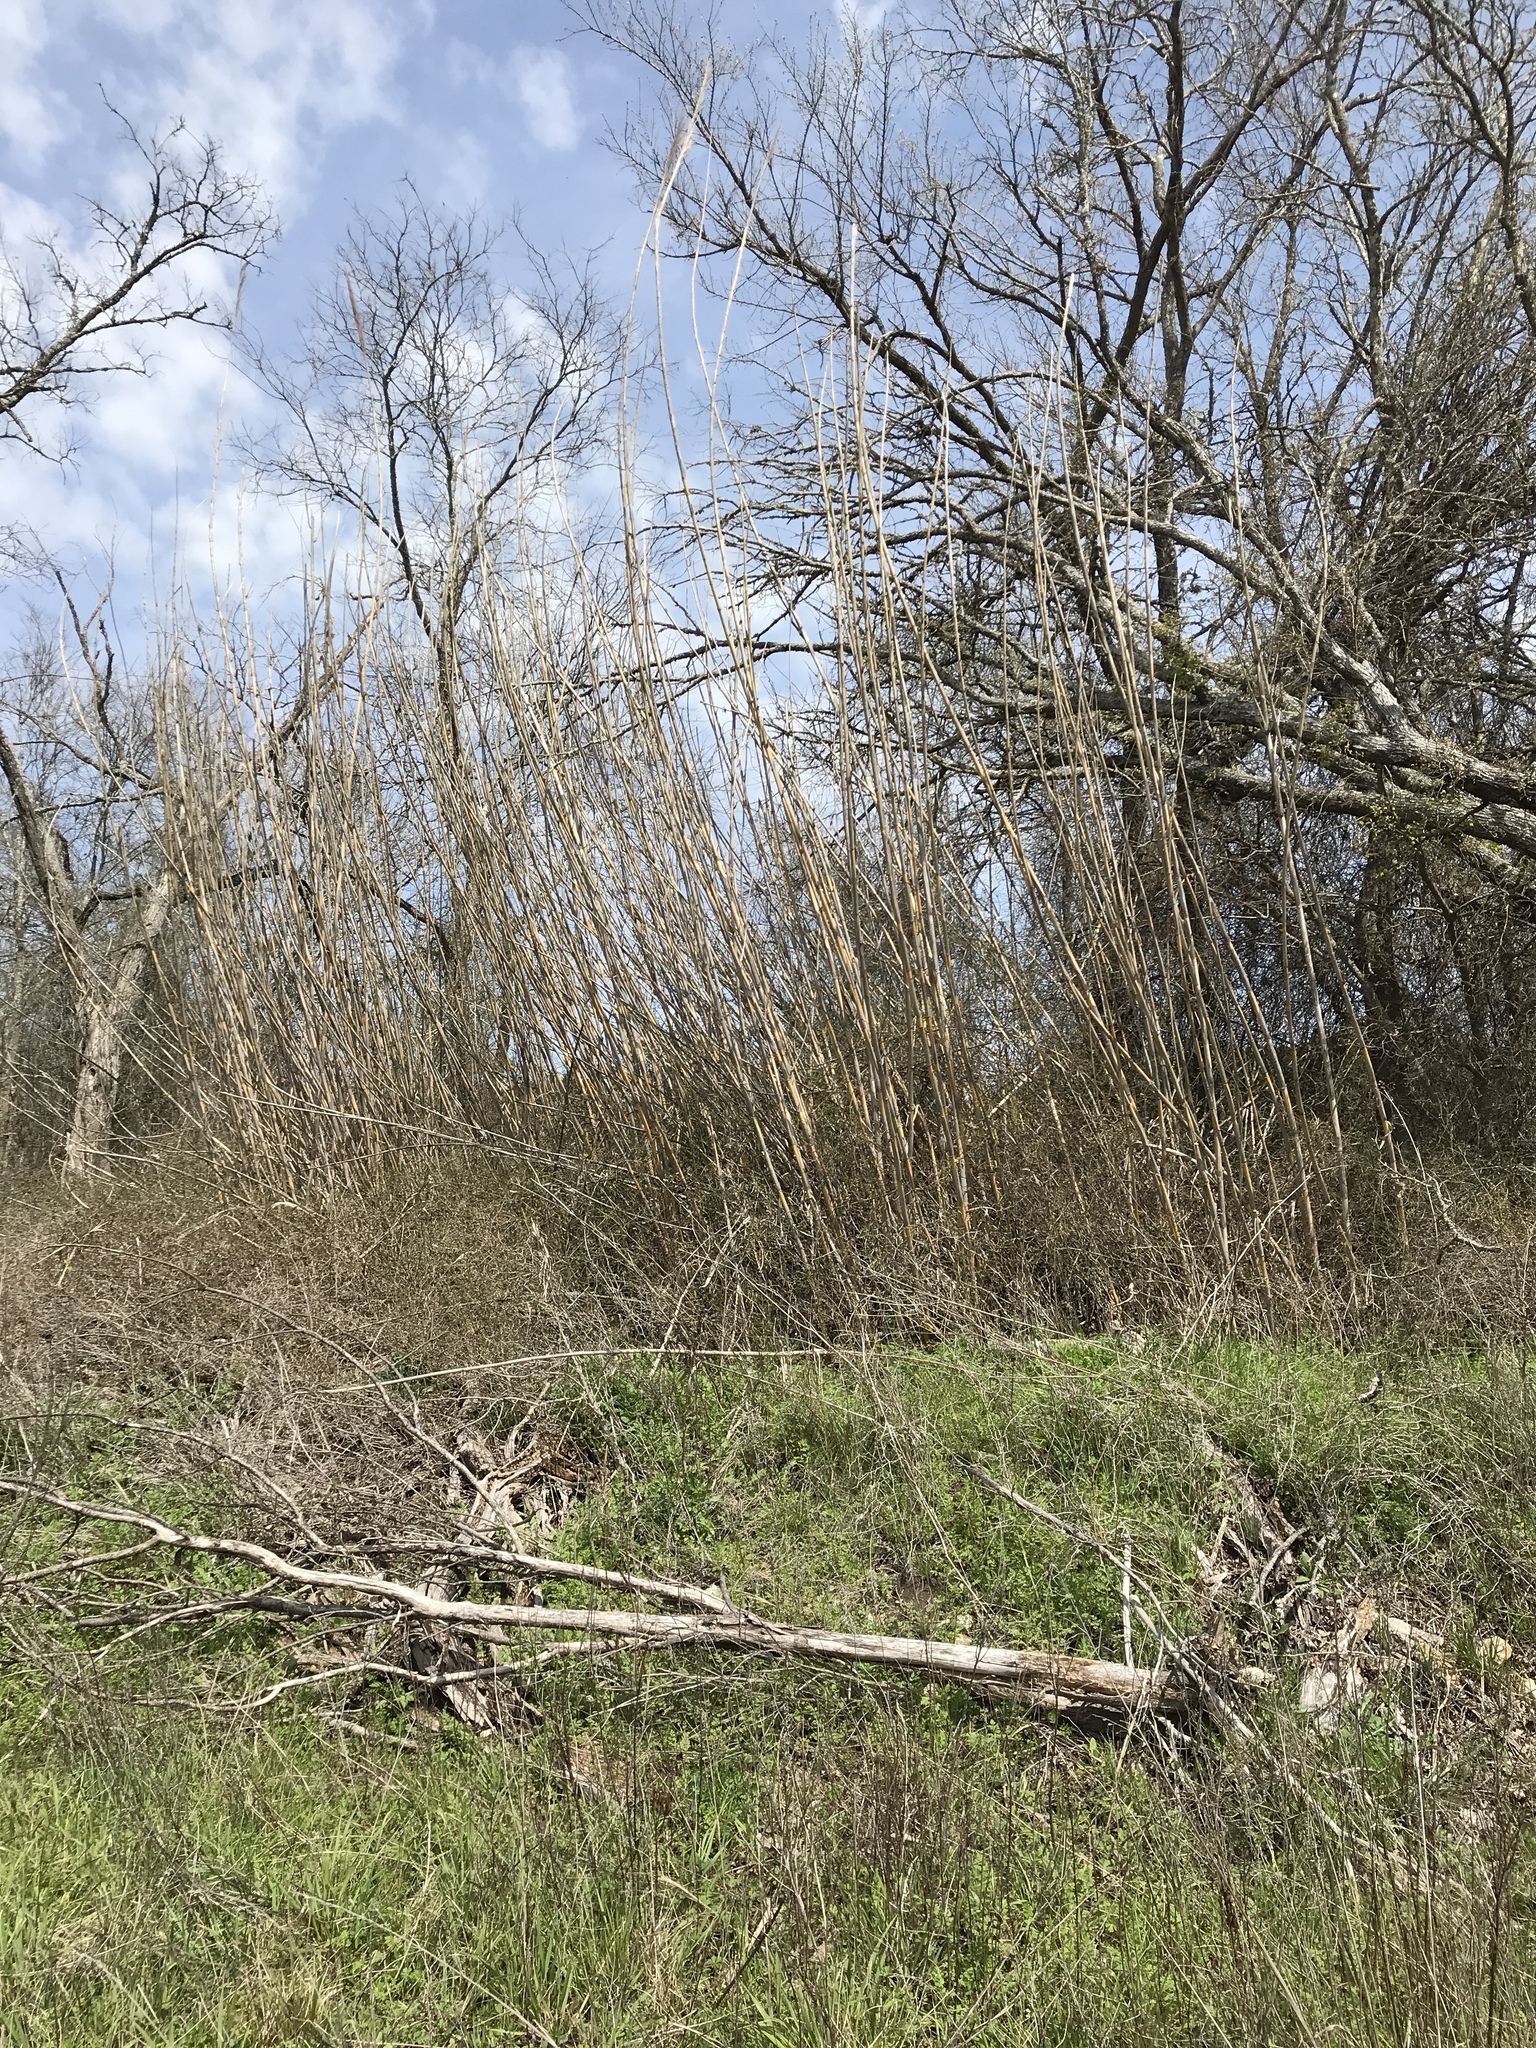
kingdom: Plantae
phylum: Tracheophyta
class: Liliopsida
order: Poales
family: Poaceae
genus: Arundo
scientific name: Arundo donax
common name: Giant reed
